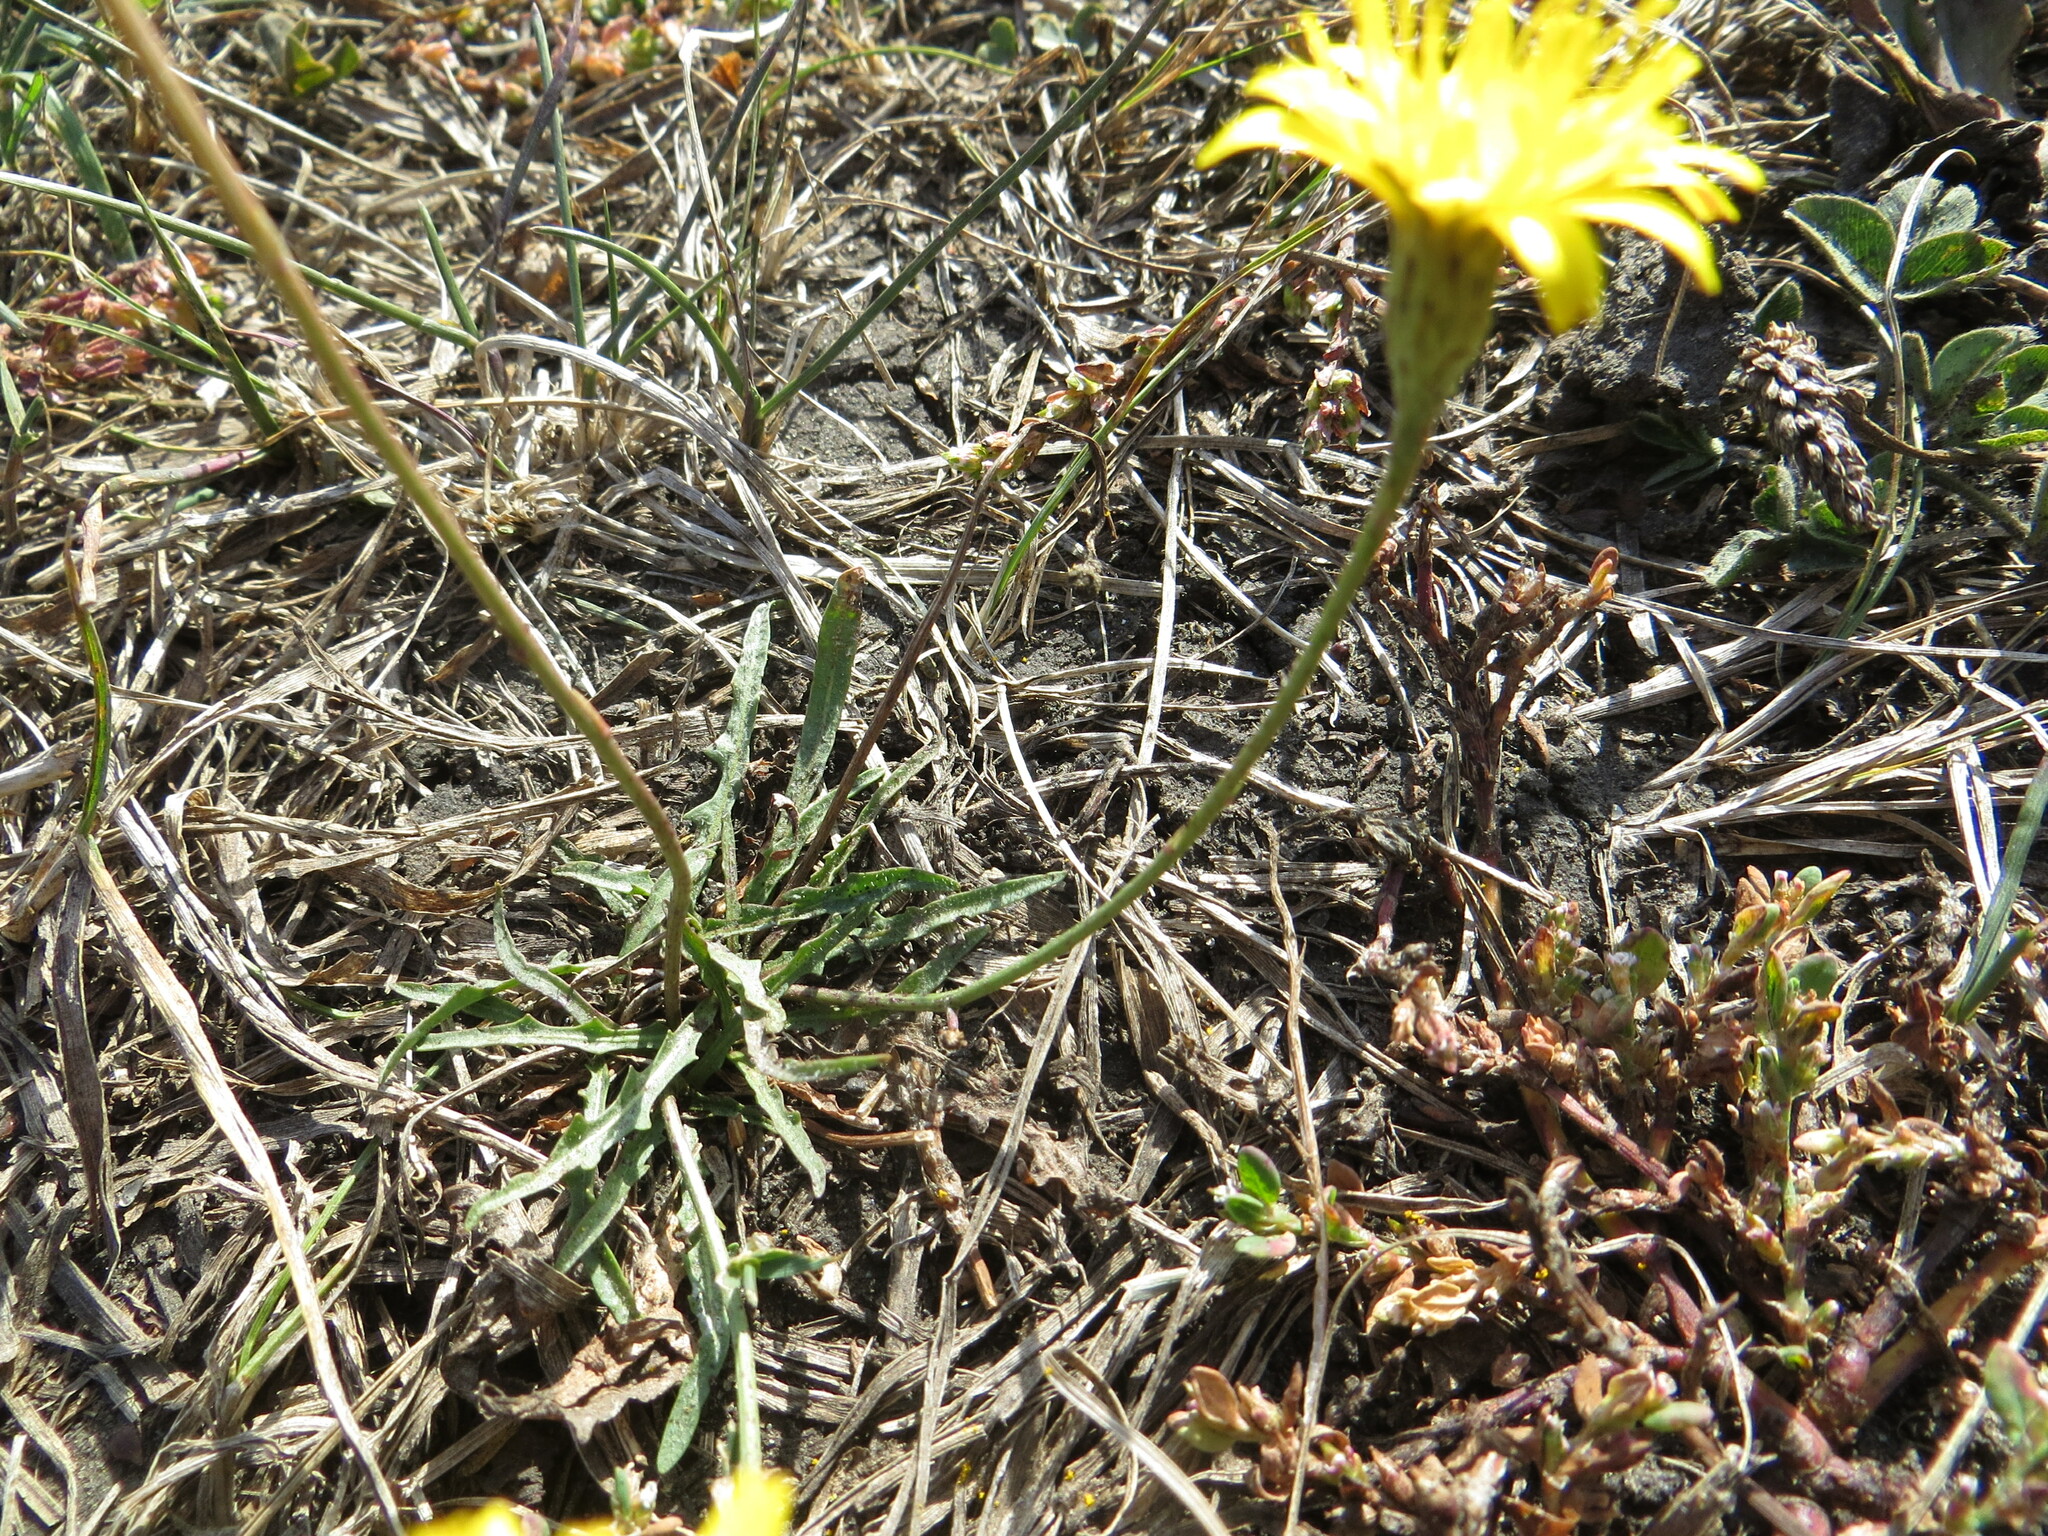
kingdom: Plantae
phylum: Tracheophyta
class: Magnoliopsida
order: Asterales
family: Asteraceae
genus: Scorzoneroides
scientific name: Scorzoneroides autumnalis
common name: Autumn hawkbit
